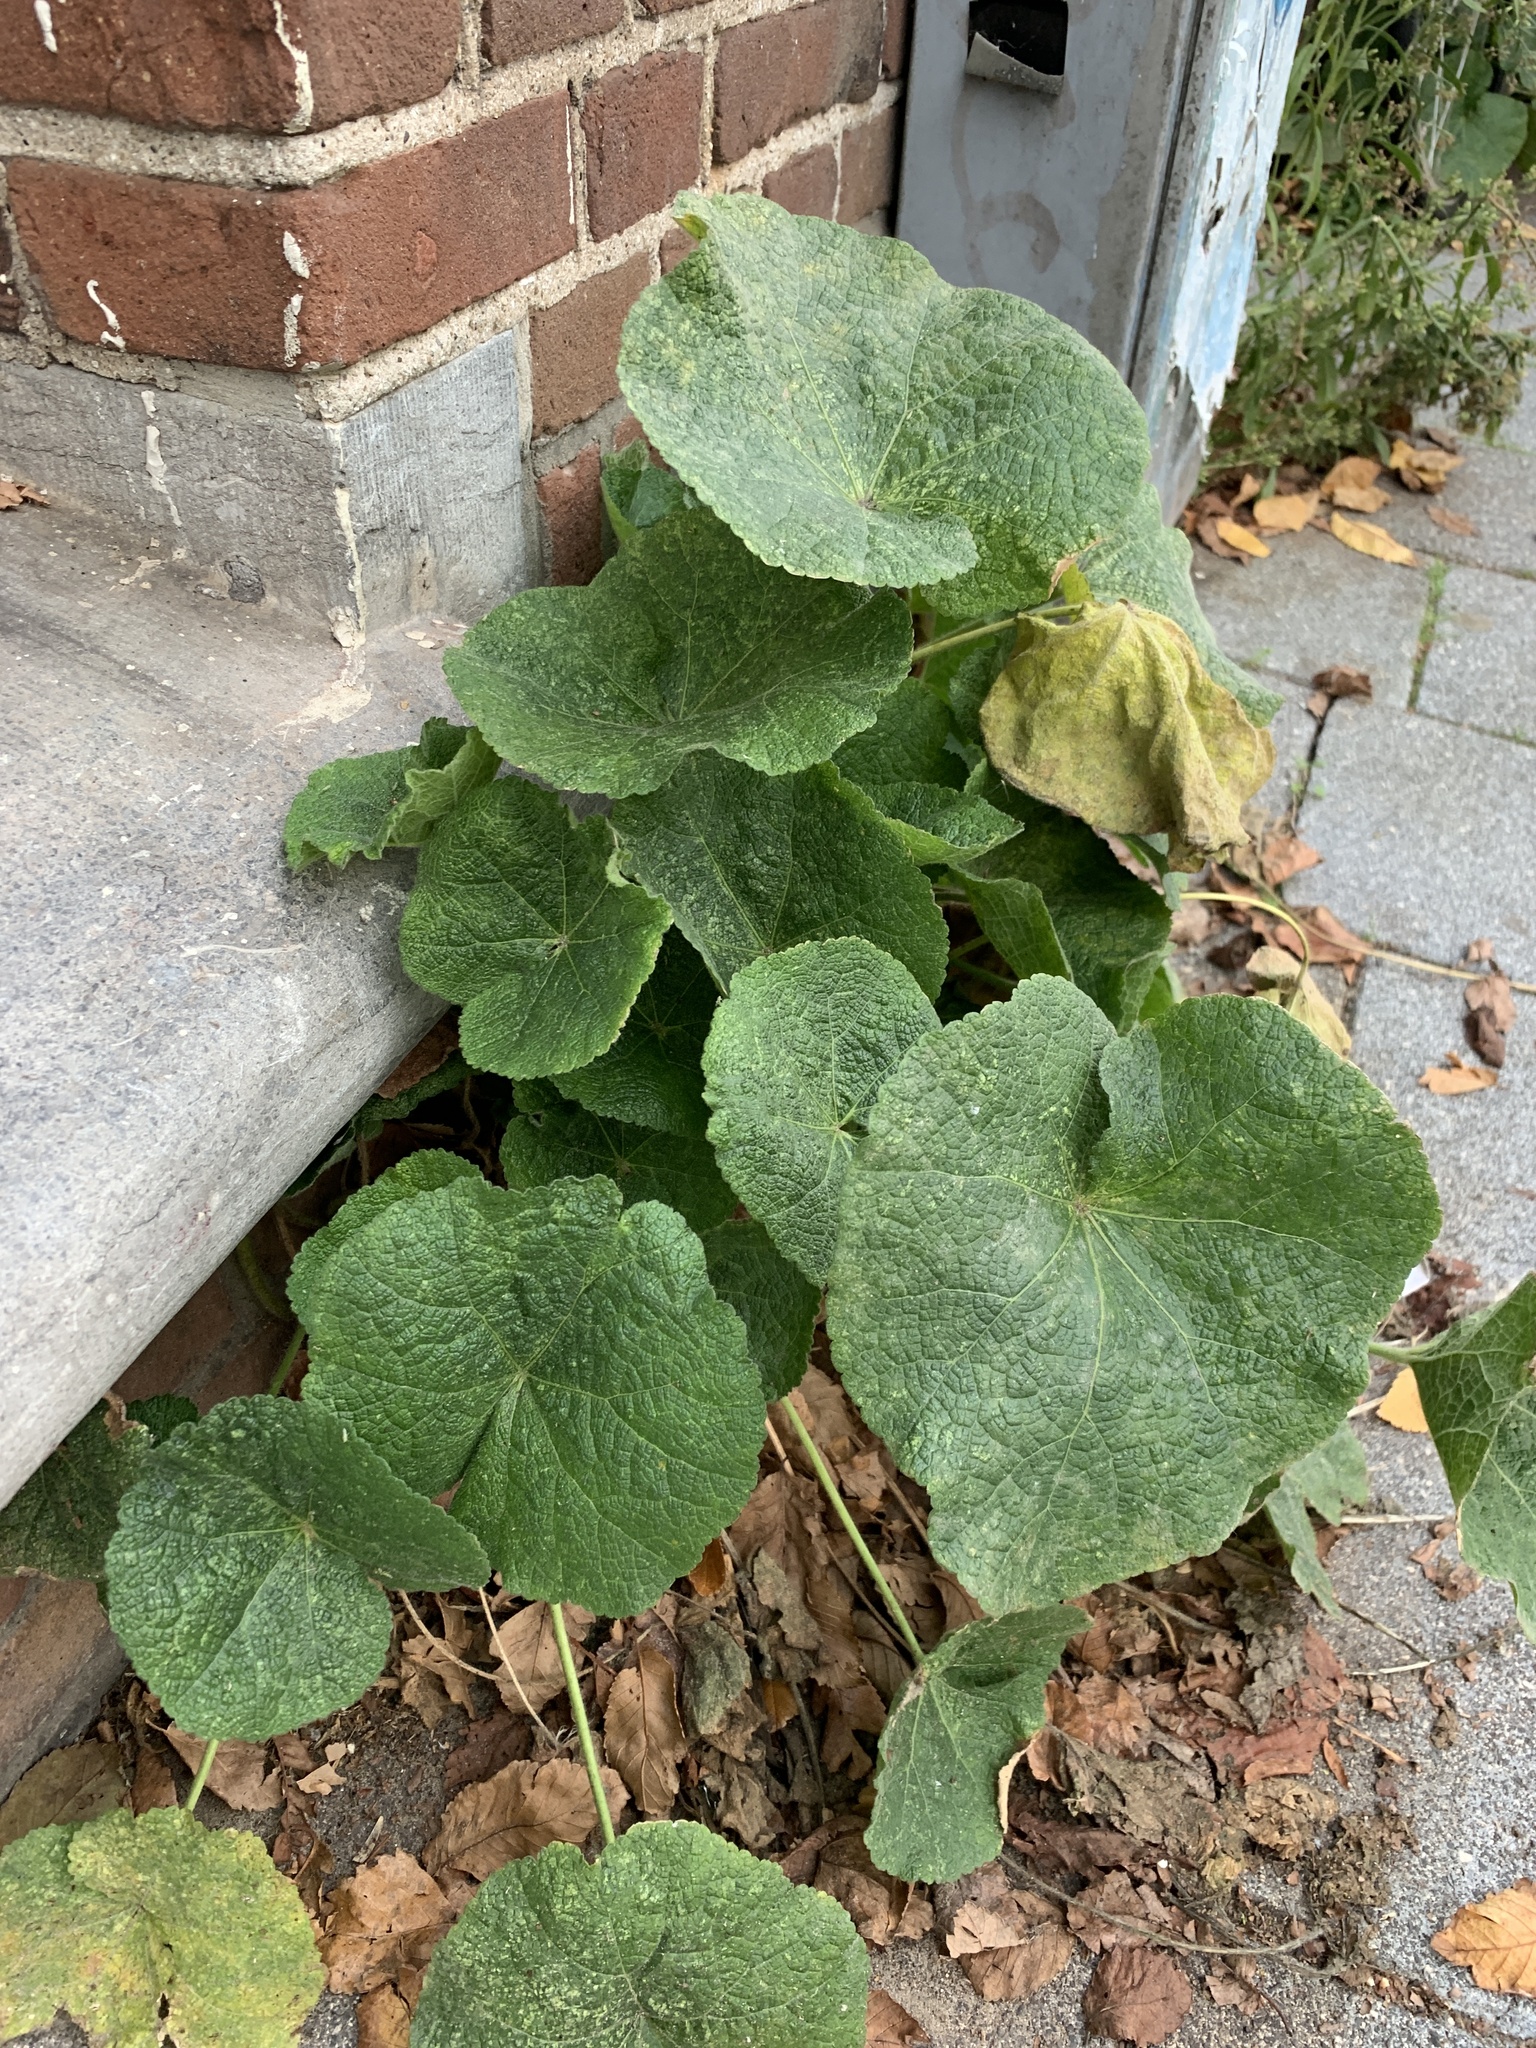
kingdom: Plantae
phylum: Tracheophyta
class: Magnoliopsida
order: Malvales
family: Malvaceae
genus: Alcea
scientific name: Alcea rosea
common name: Hollyhock
